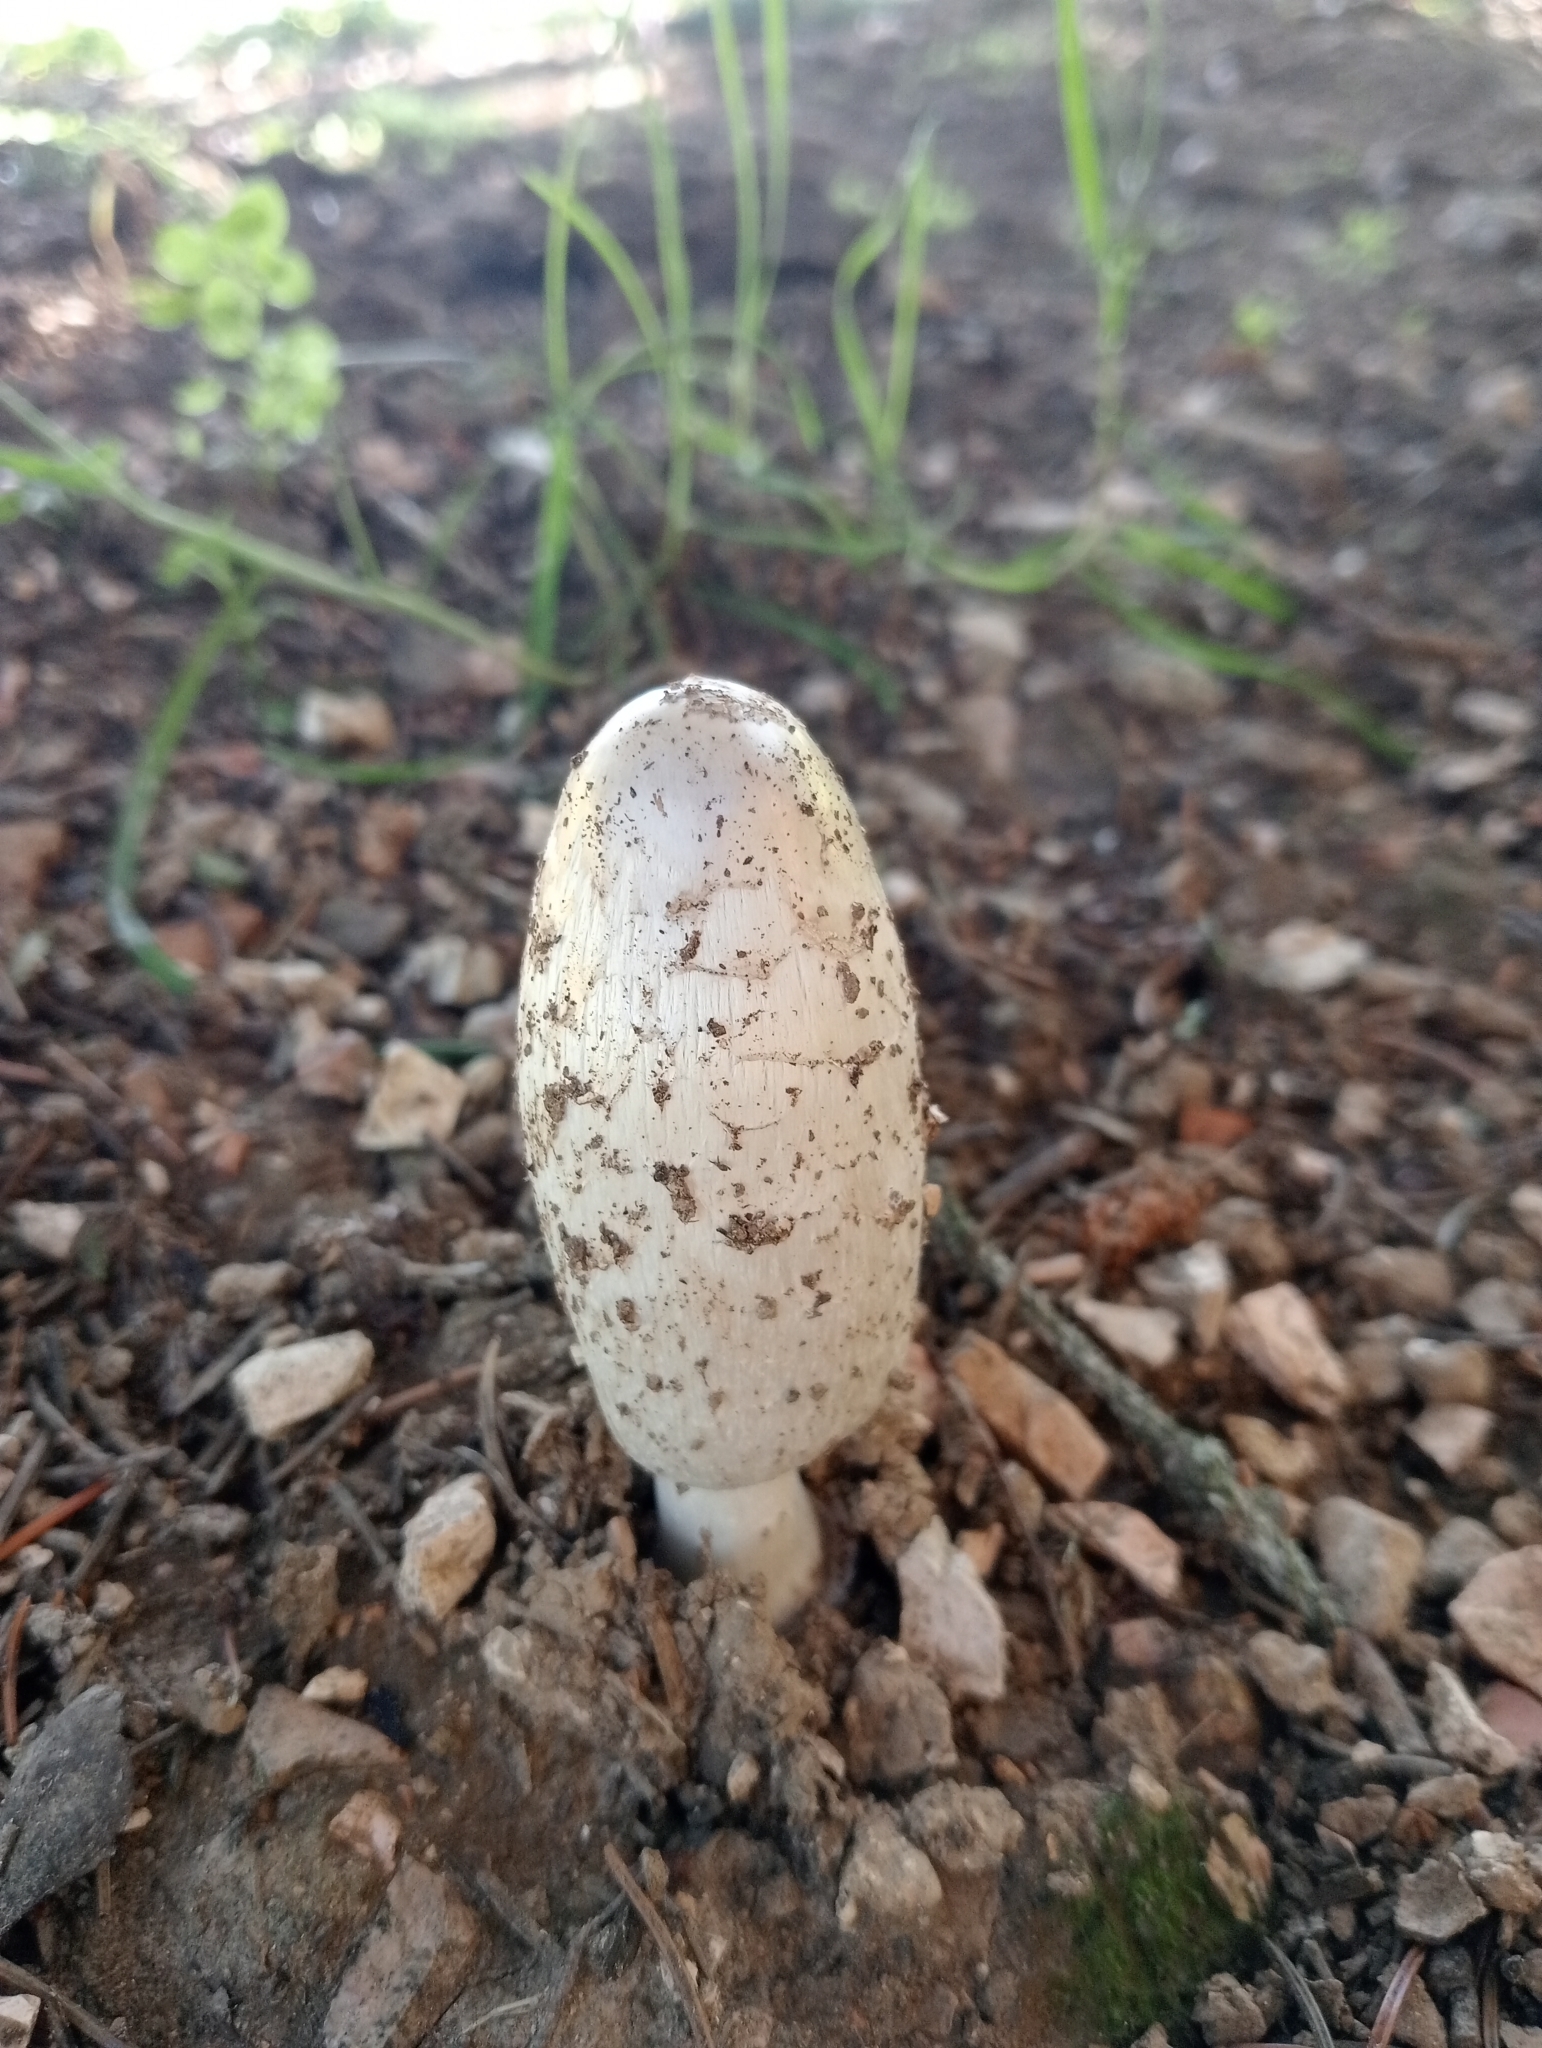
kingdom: Fungi
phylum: Basidiomycota
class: Agaricomycetes
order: Agaricales
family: Agaricaceae
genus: Coprinus
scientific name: Coprinus comatus
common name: Lawyer's wig
